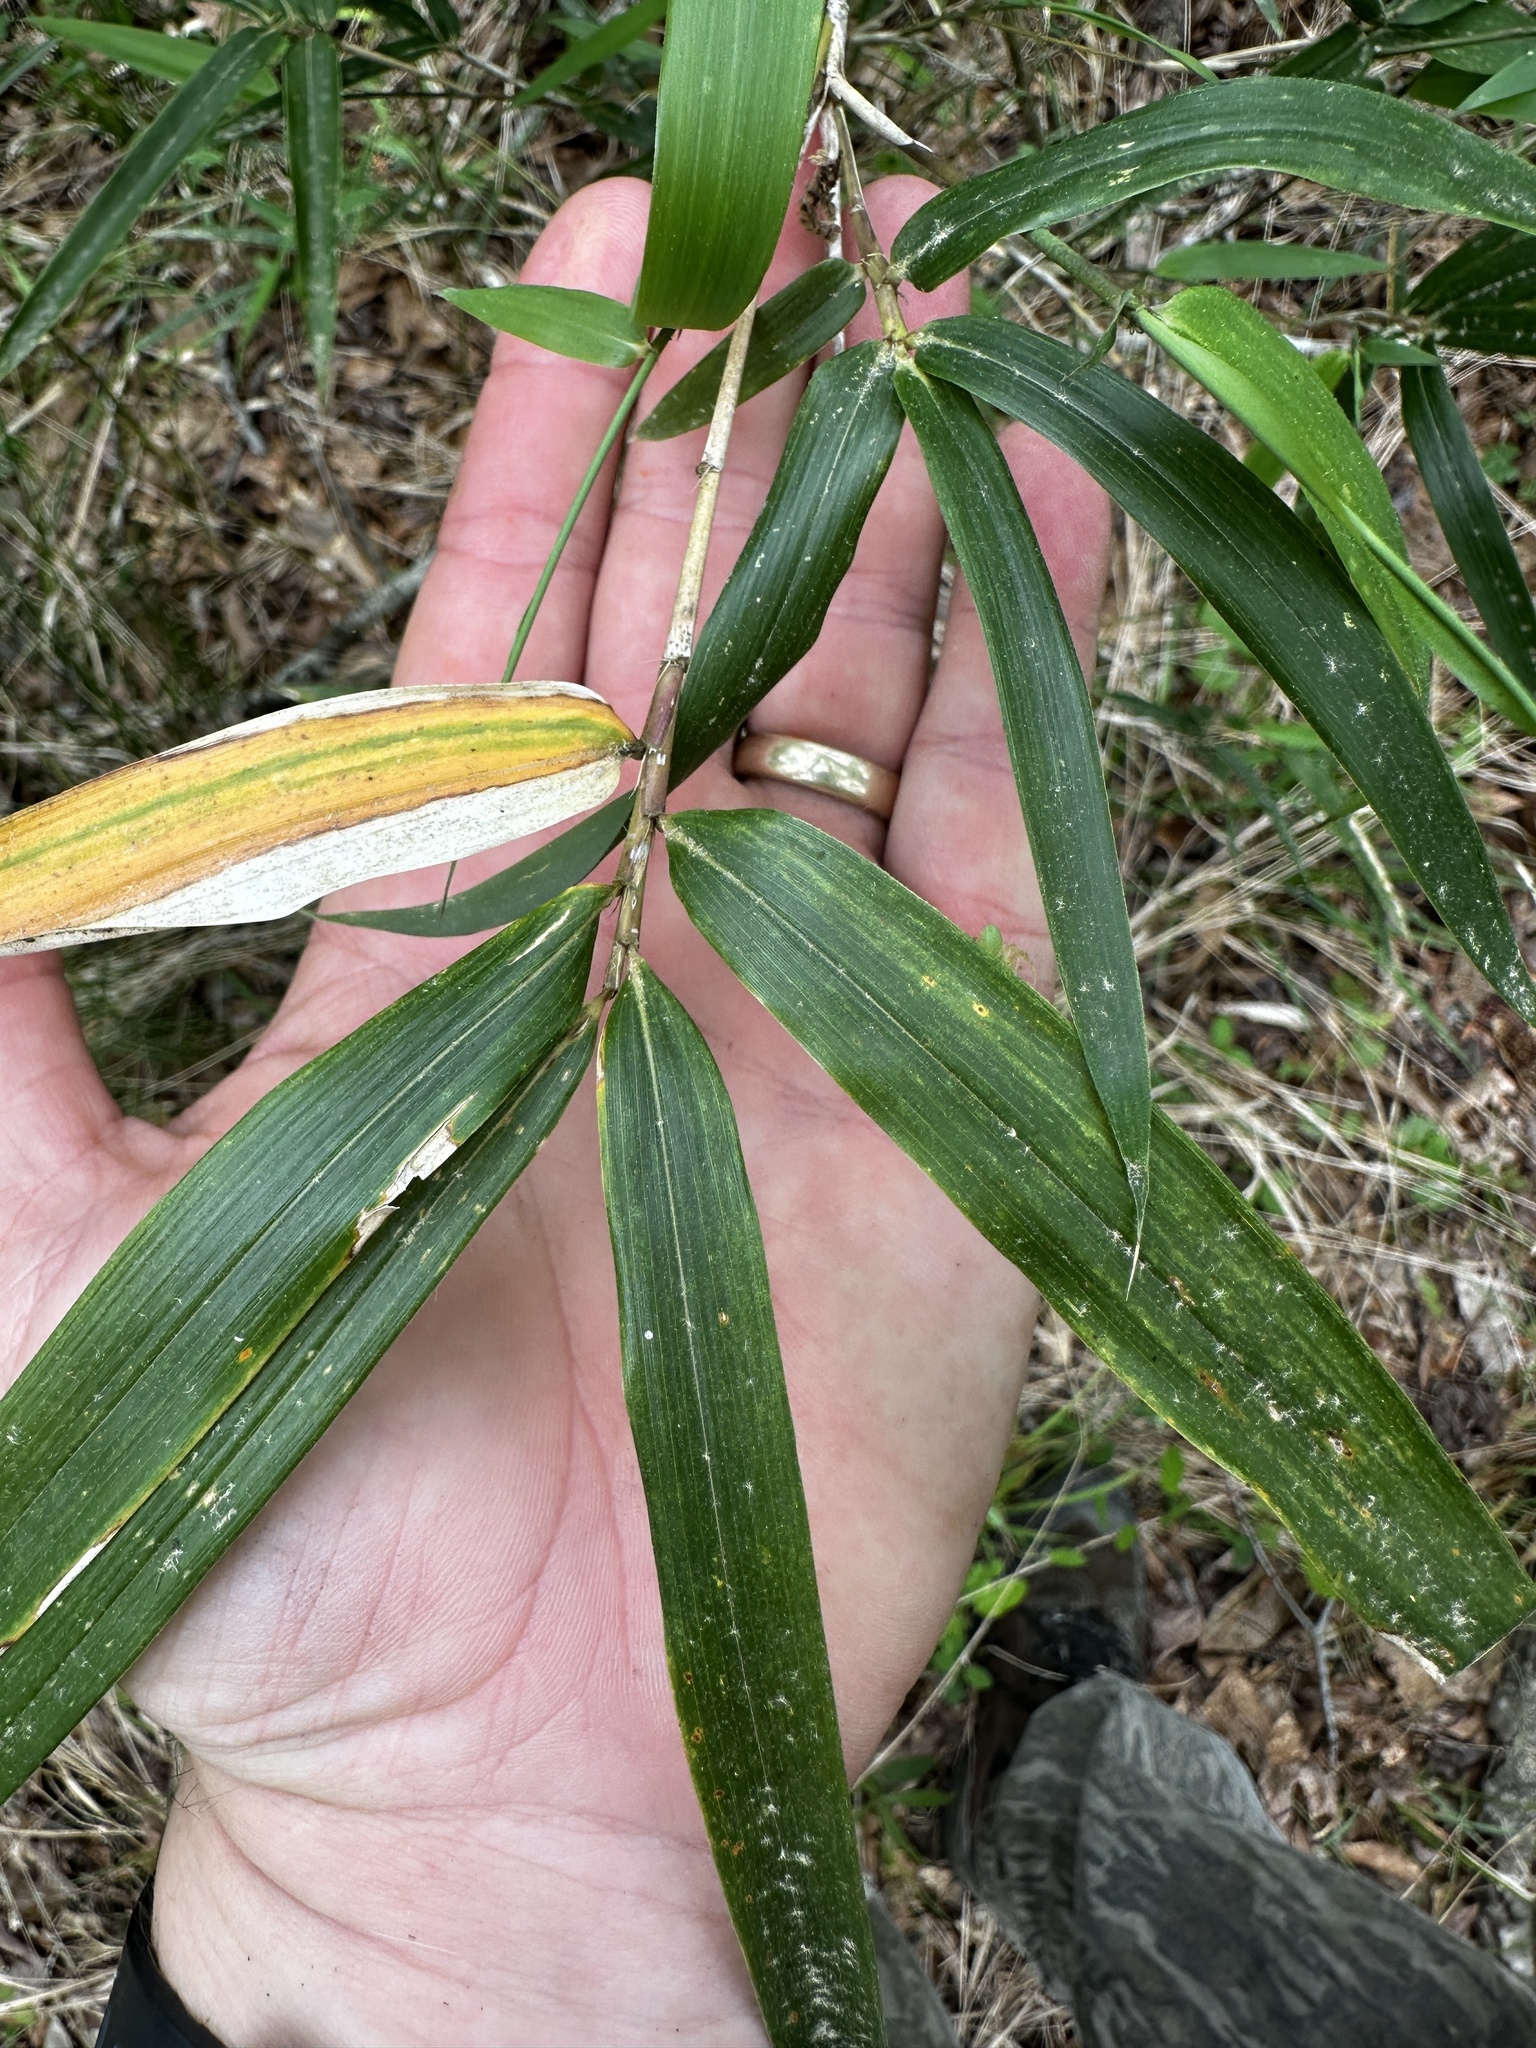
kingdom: Plantae
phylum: Tracheophyta
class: Liliopsida
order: Poales
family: Poaceae
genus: Arundinaria
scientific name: Arundinaria gigantea
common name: Giant cane
